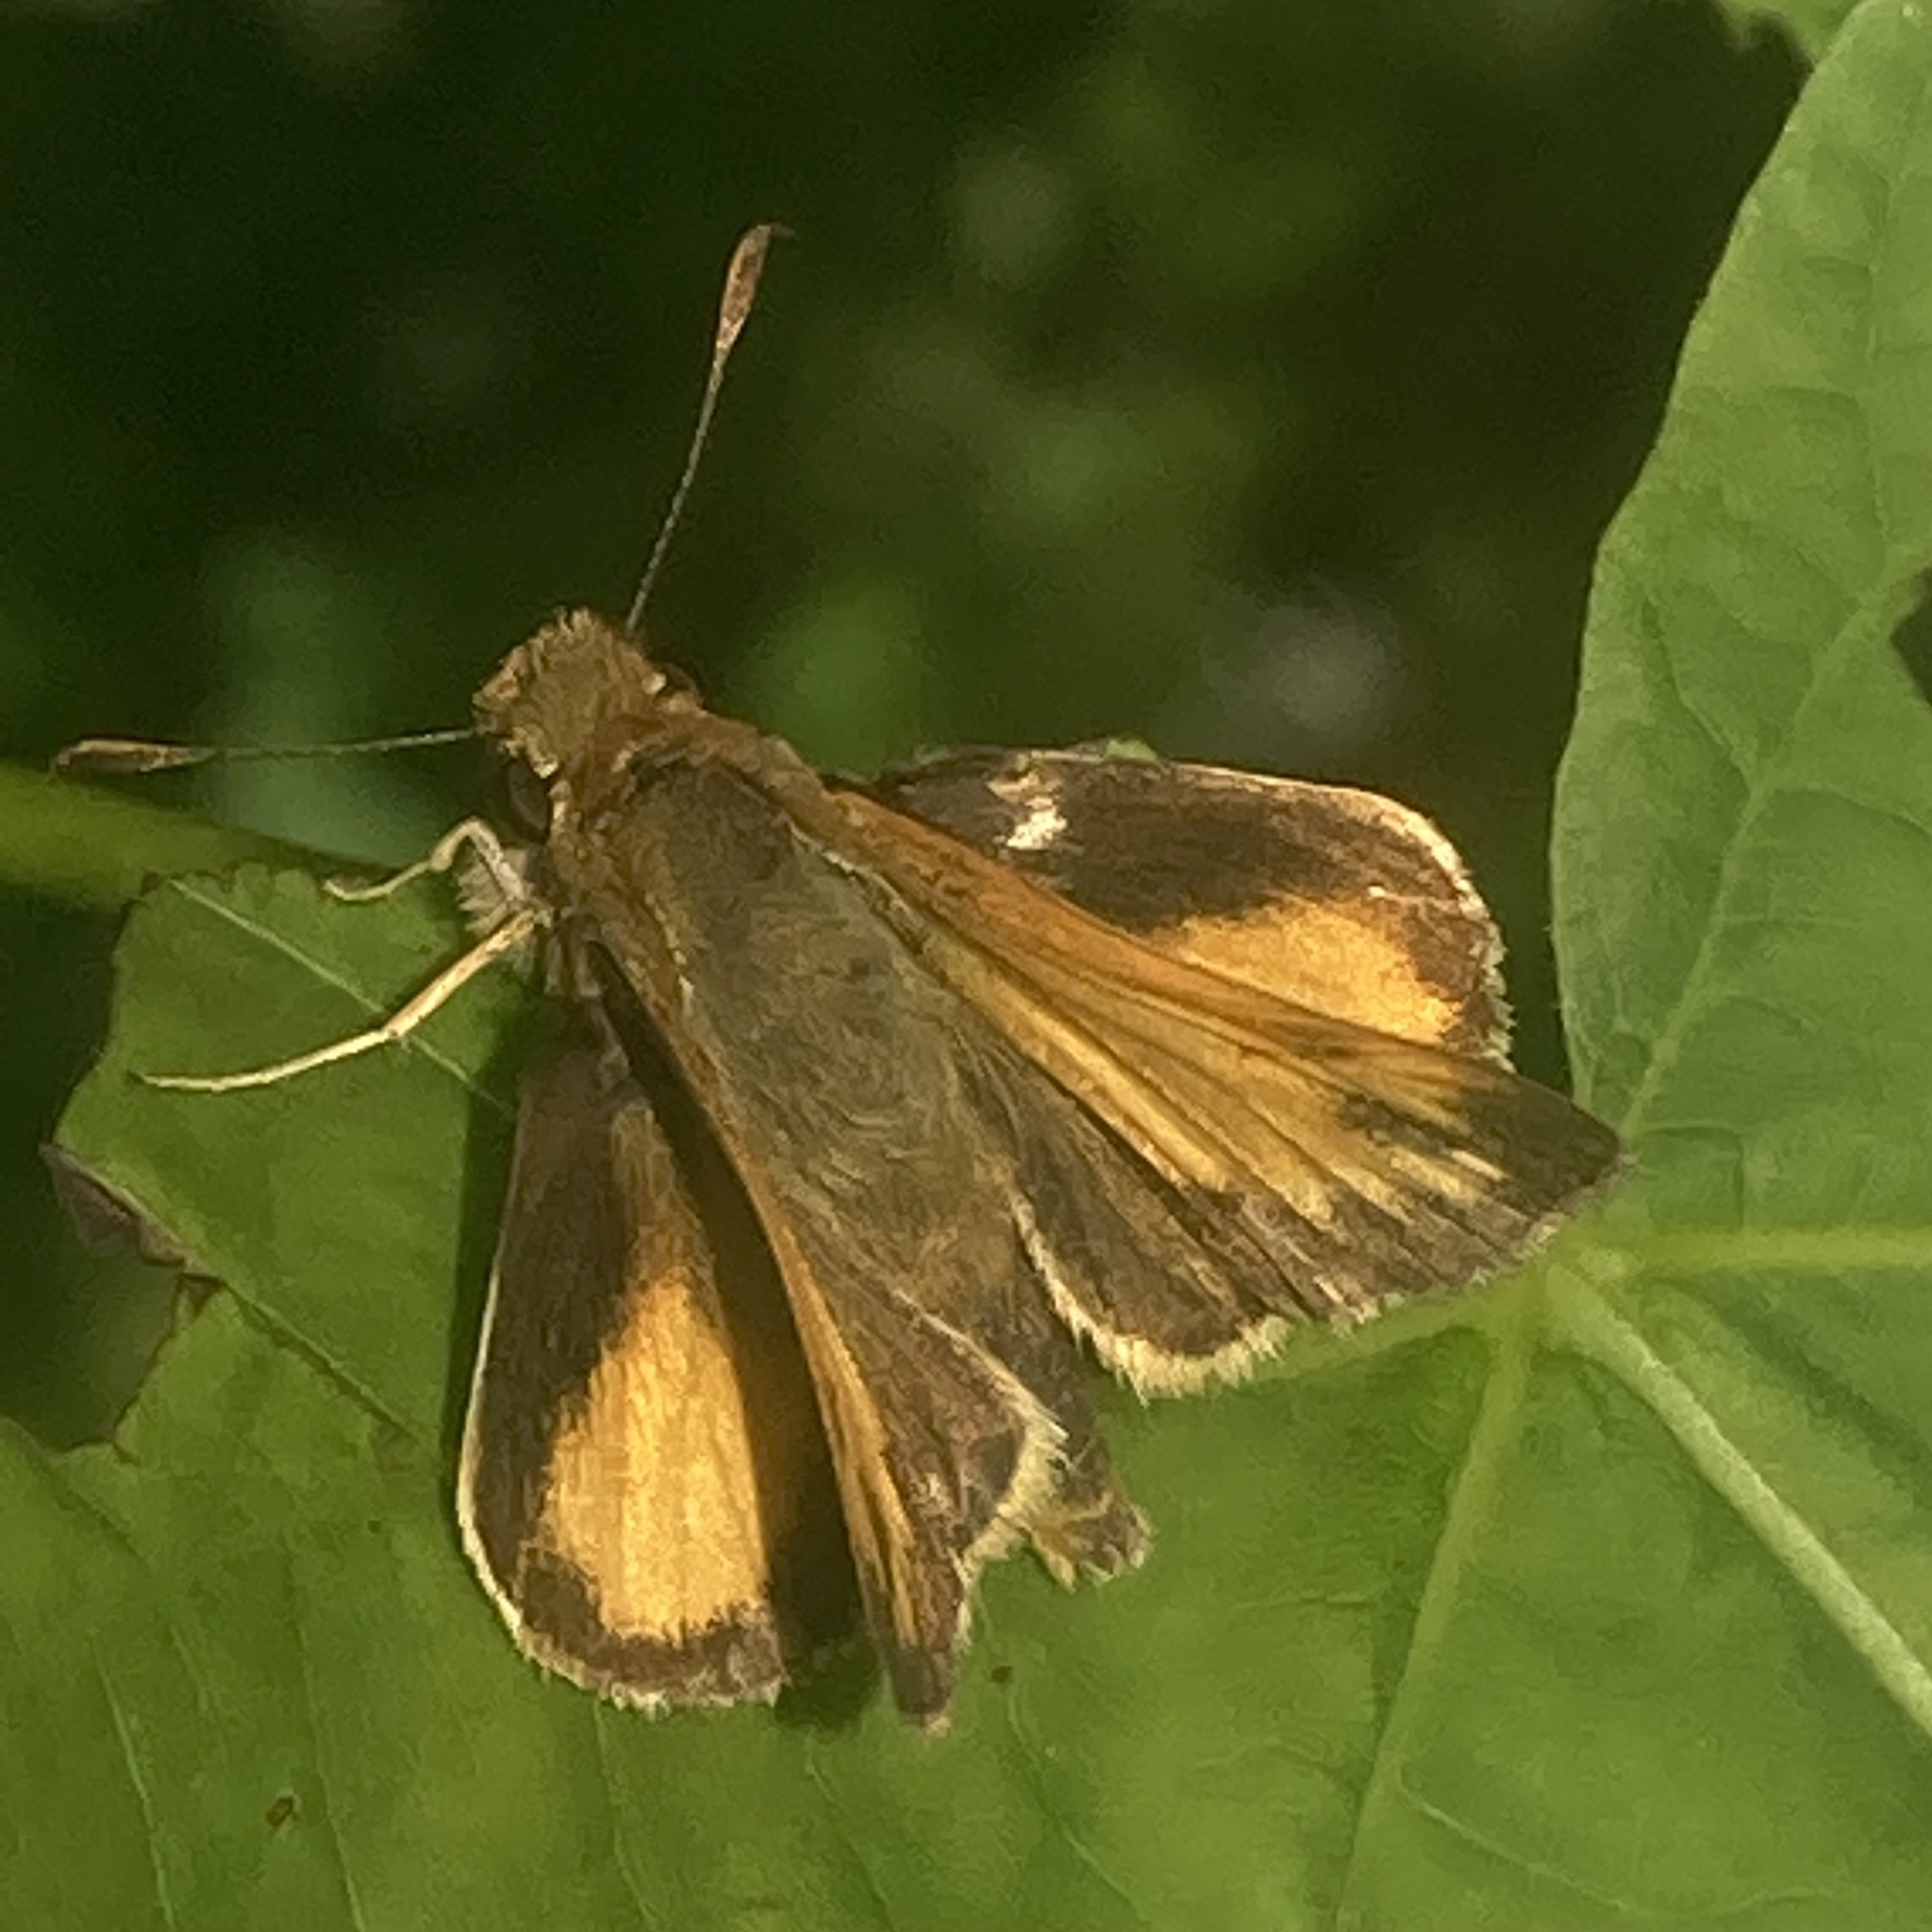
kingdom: Animalia
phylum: Arthropoda
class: Insecta
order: Lepidoptera
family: Hesperiidae
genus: Lon
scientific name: Lon zabulon
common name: Zabulon skipper
